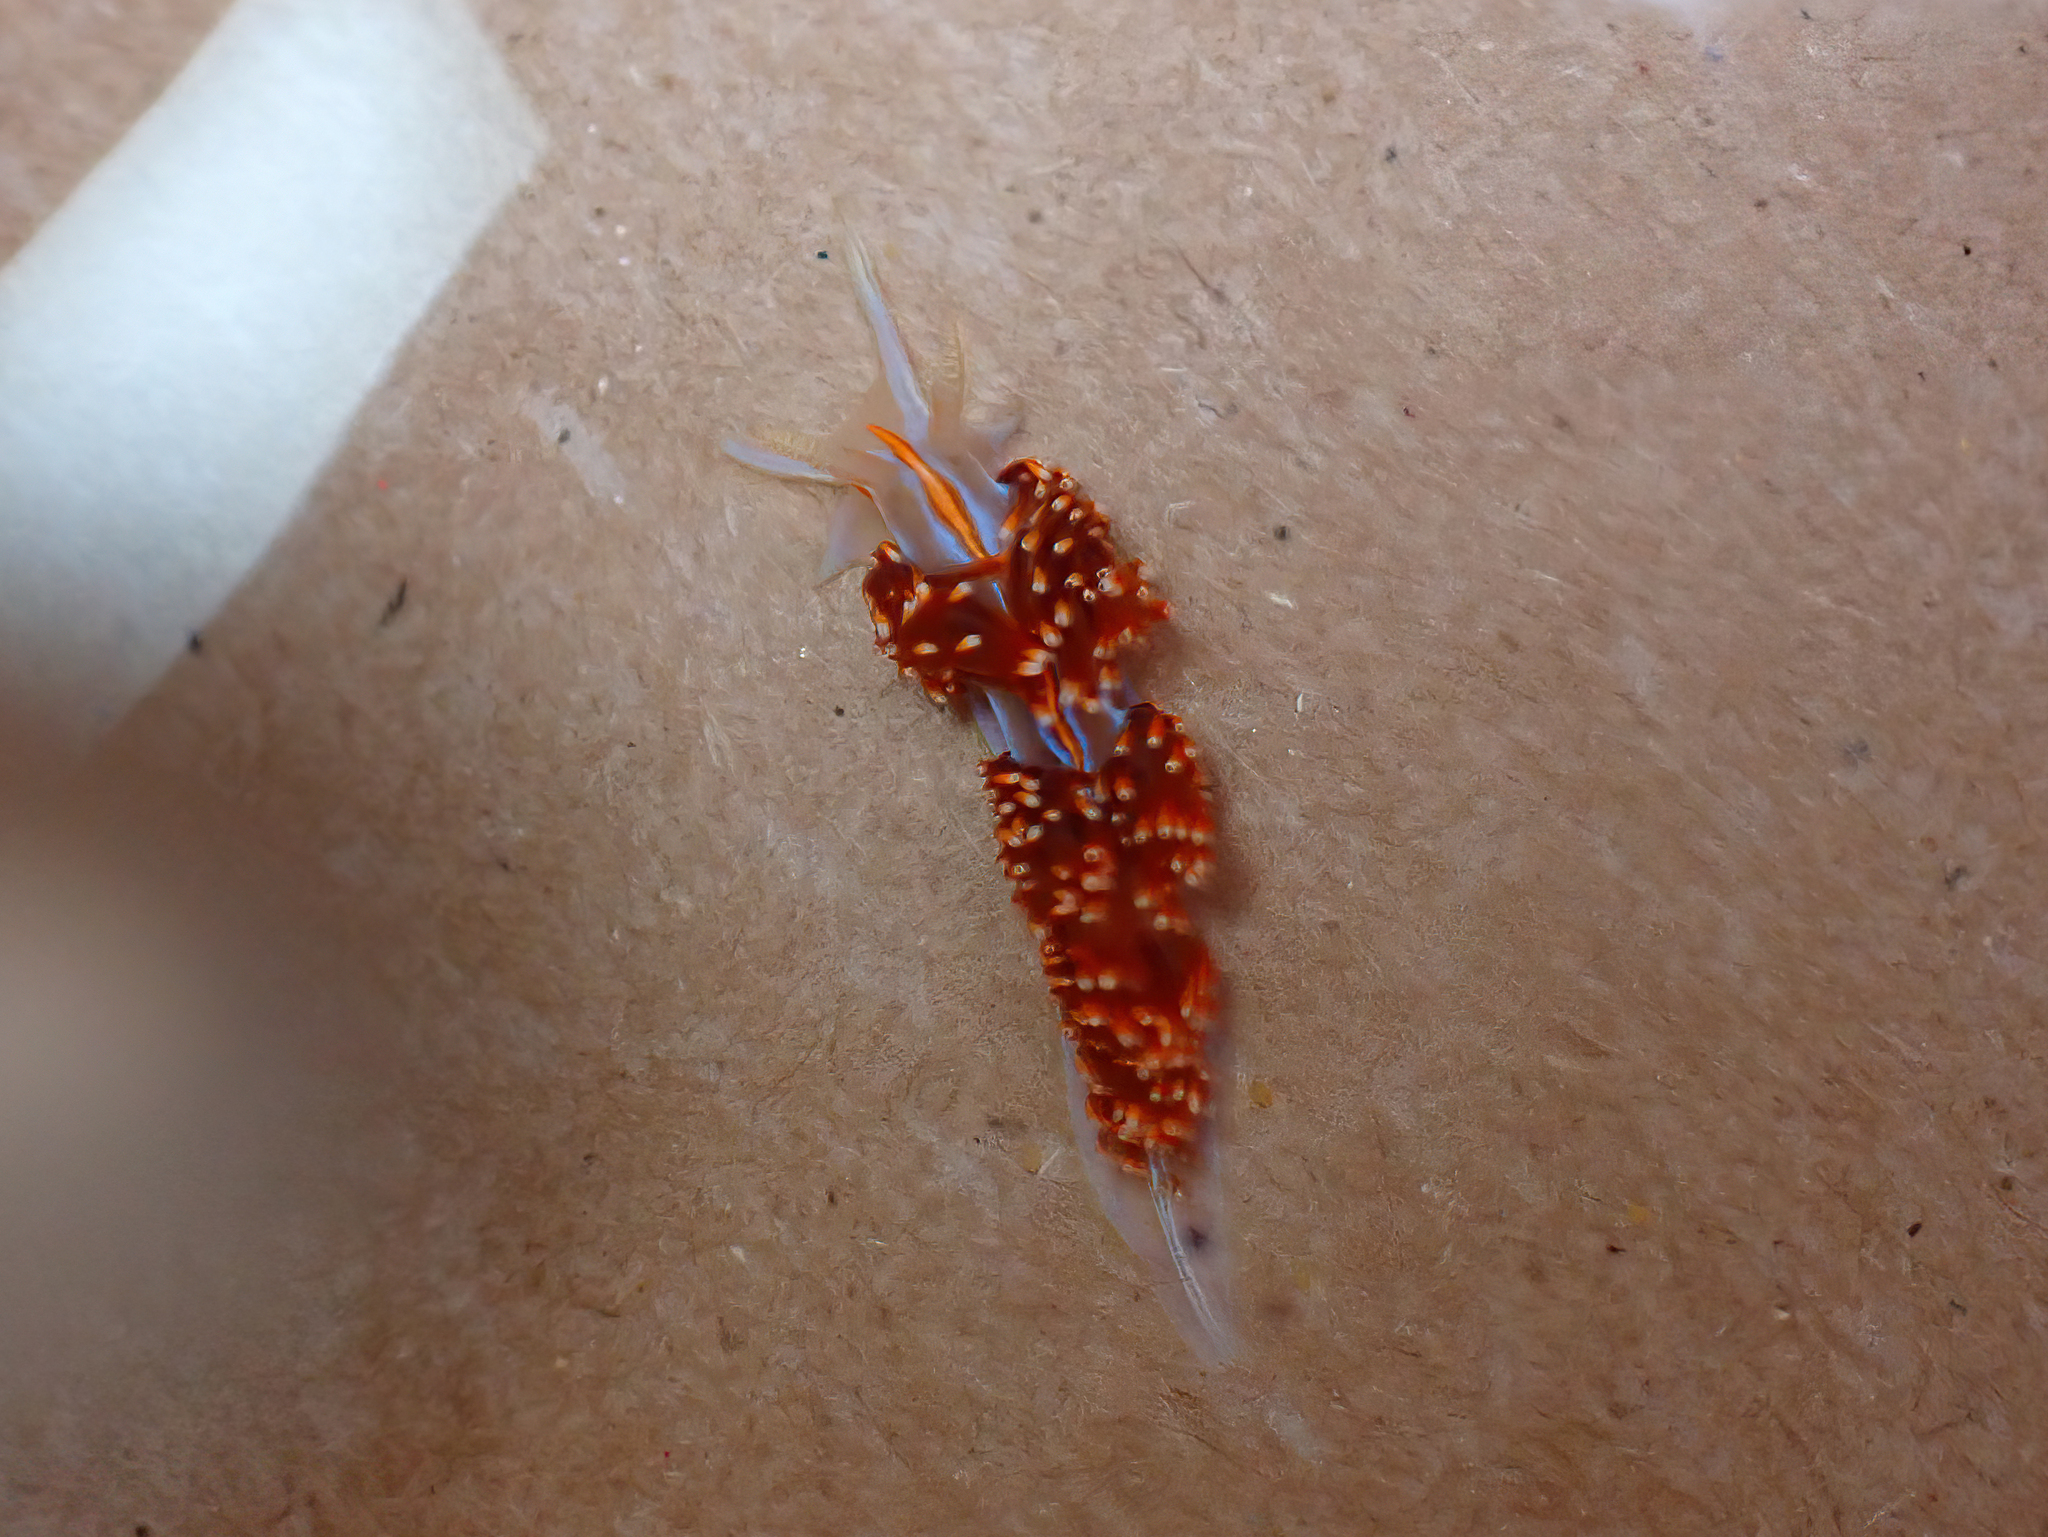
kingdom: Animalia
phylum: Mollusca
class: Gastropoda
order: Nudibranchia
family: Myrrhinidae
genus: Hermissenda
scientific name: Hermissenda opalescens
